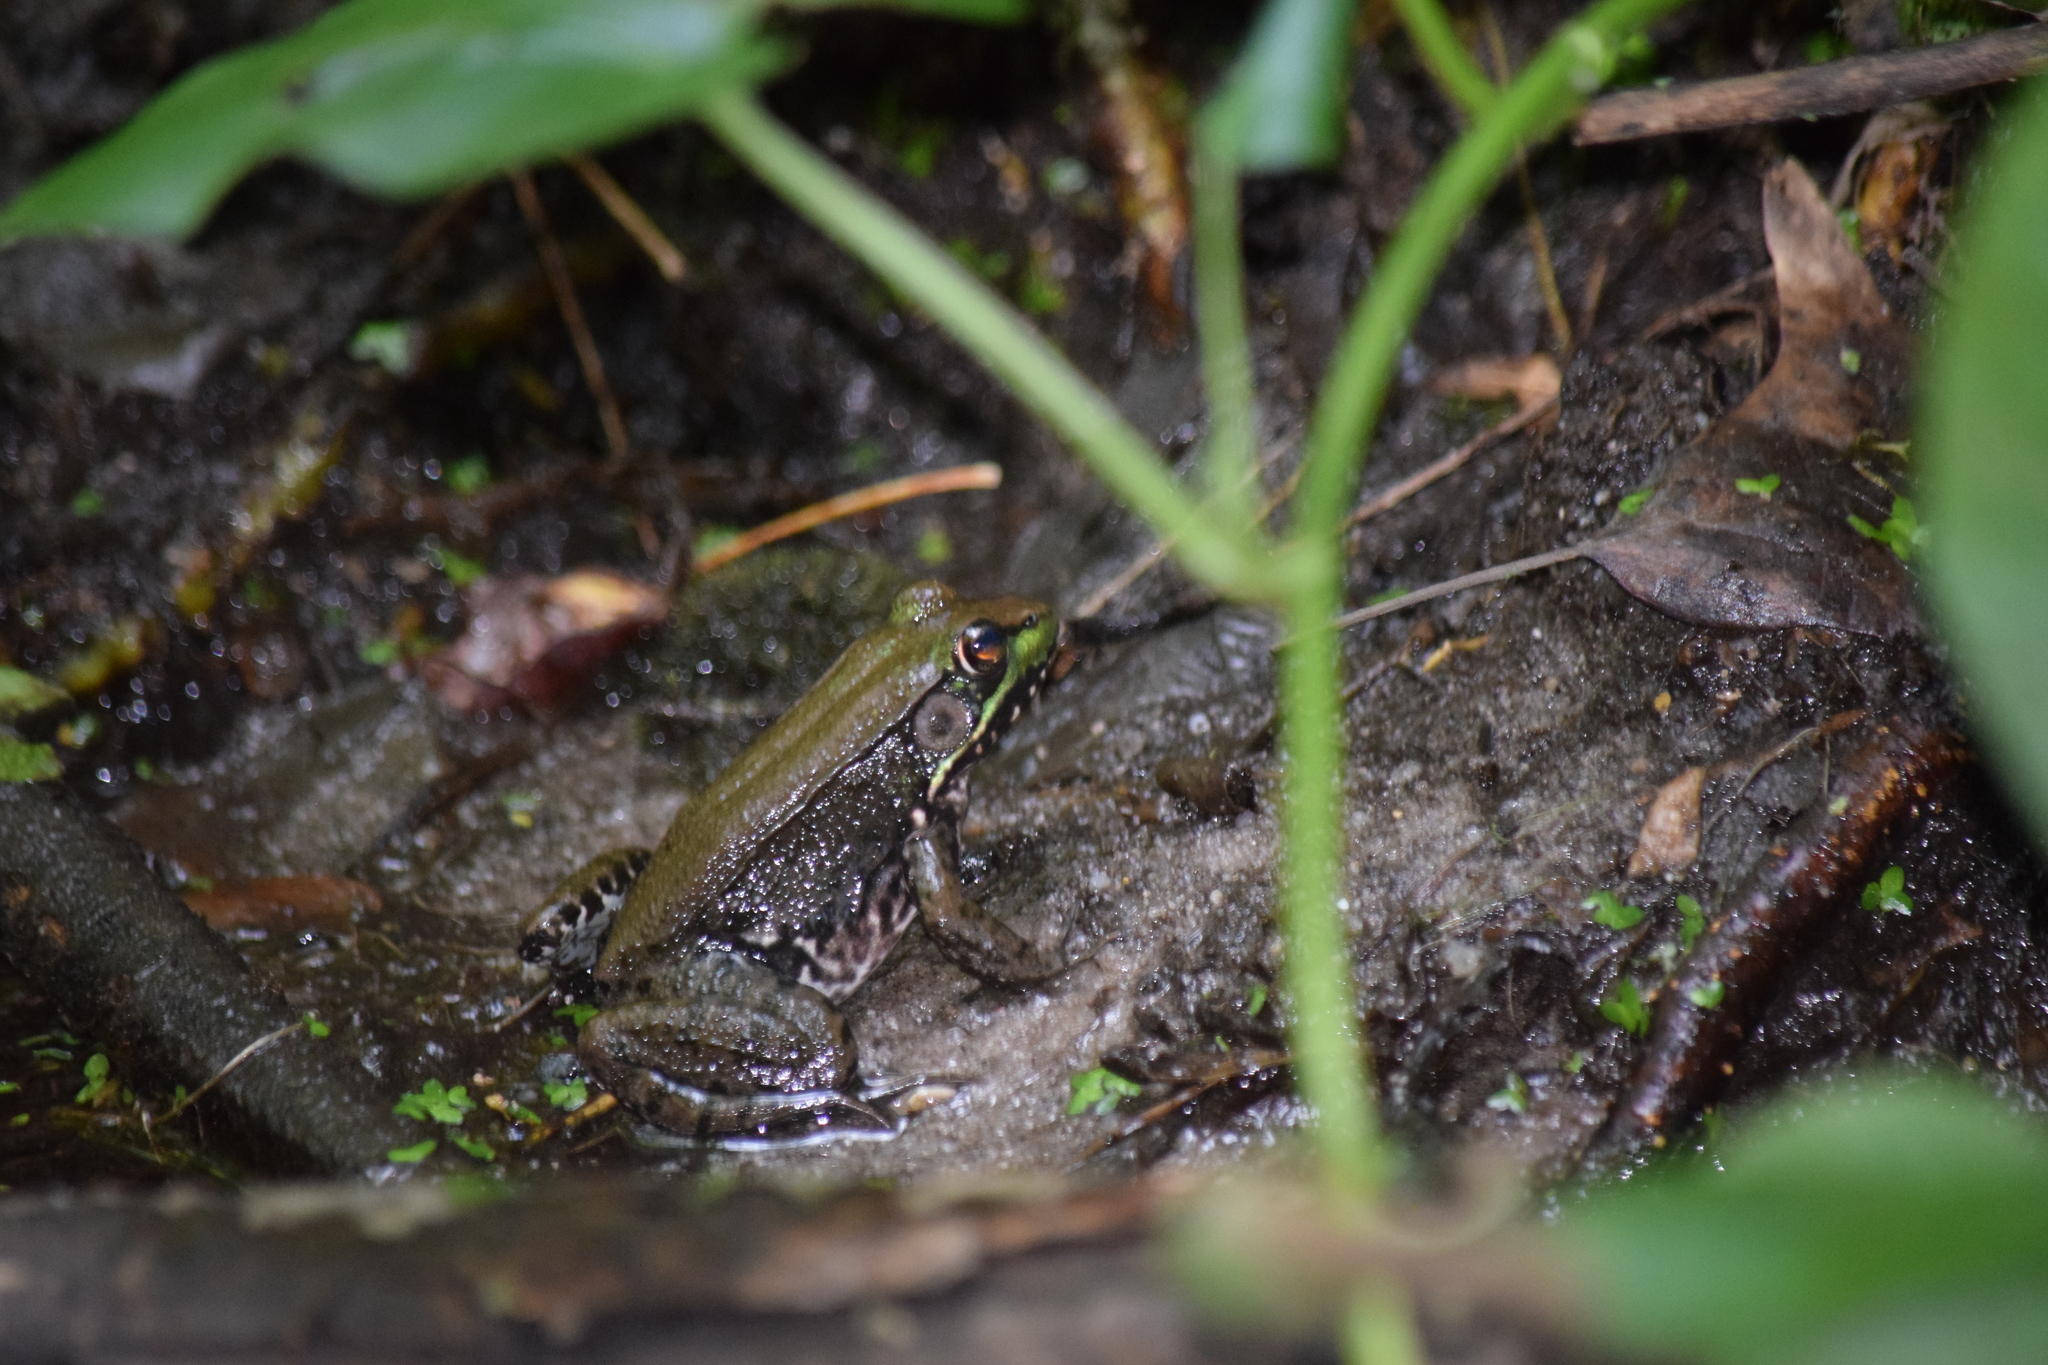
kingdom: Animalia
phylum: Chordata
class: Amphibia
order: Anura
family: Ranidae
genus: Lithobates
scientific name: Lithobates clamitans
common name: Green frog
